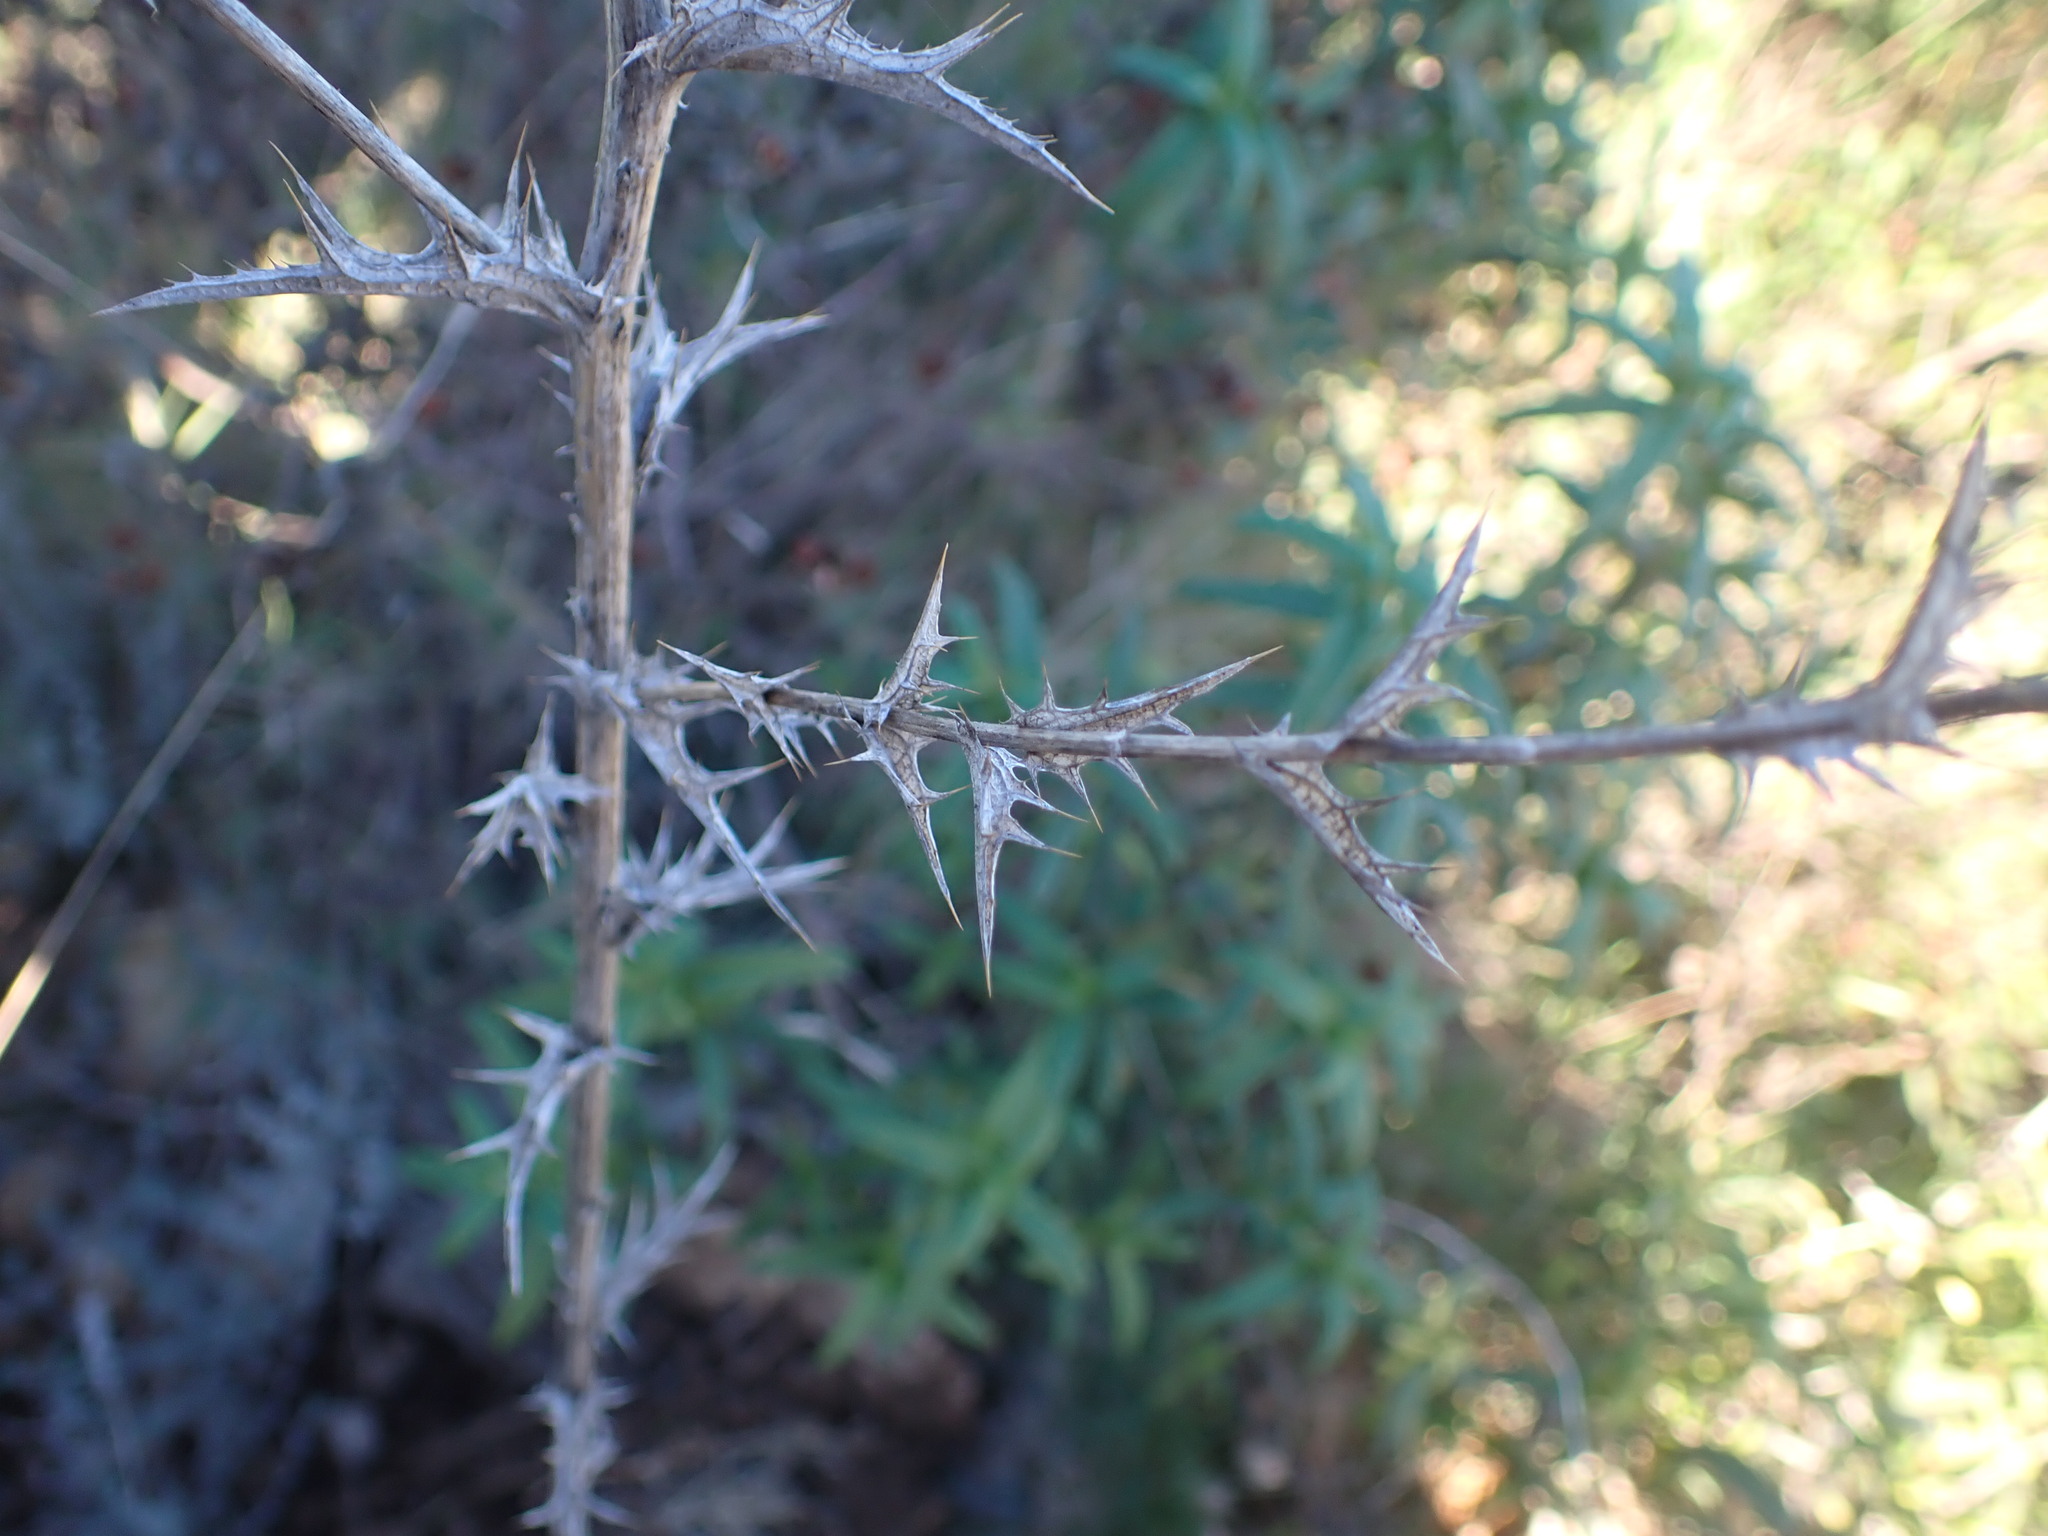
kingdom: Plantae
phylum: Tracheophyta
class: Magnoliopsida
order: Asterales
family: Asteraceae
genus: Carthamus
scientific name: Carthamus lanatus
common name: Downy safflower
